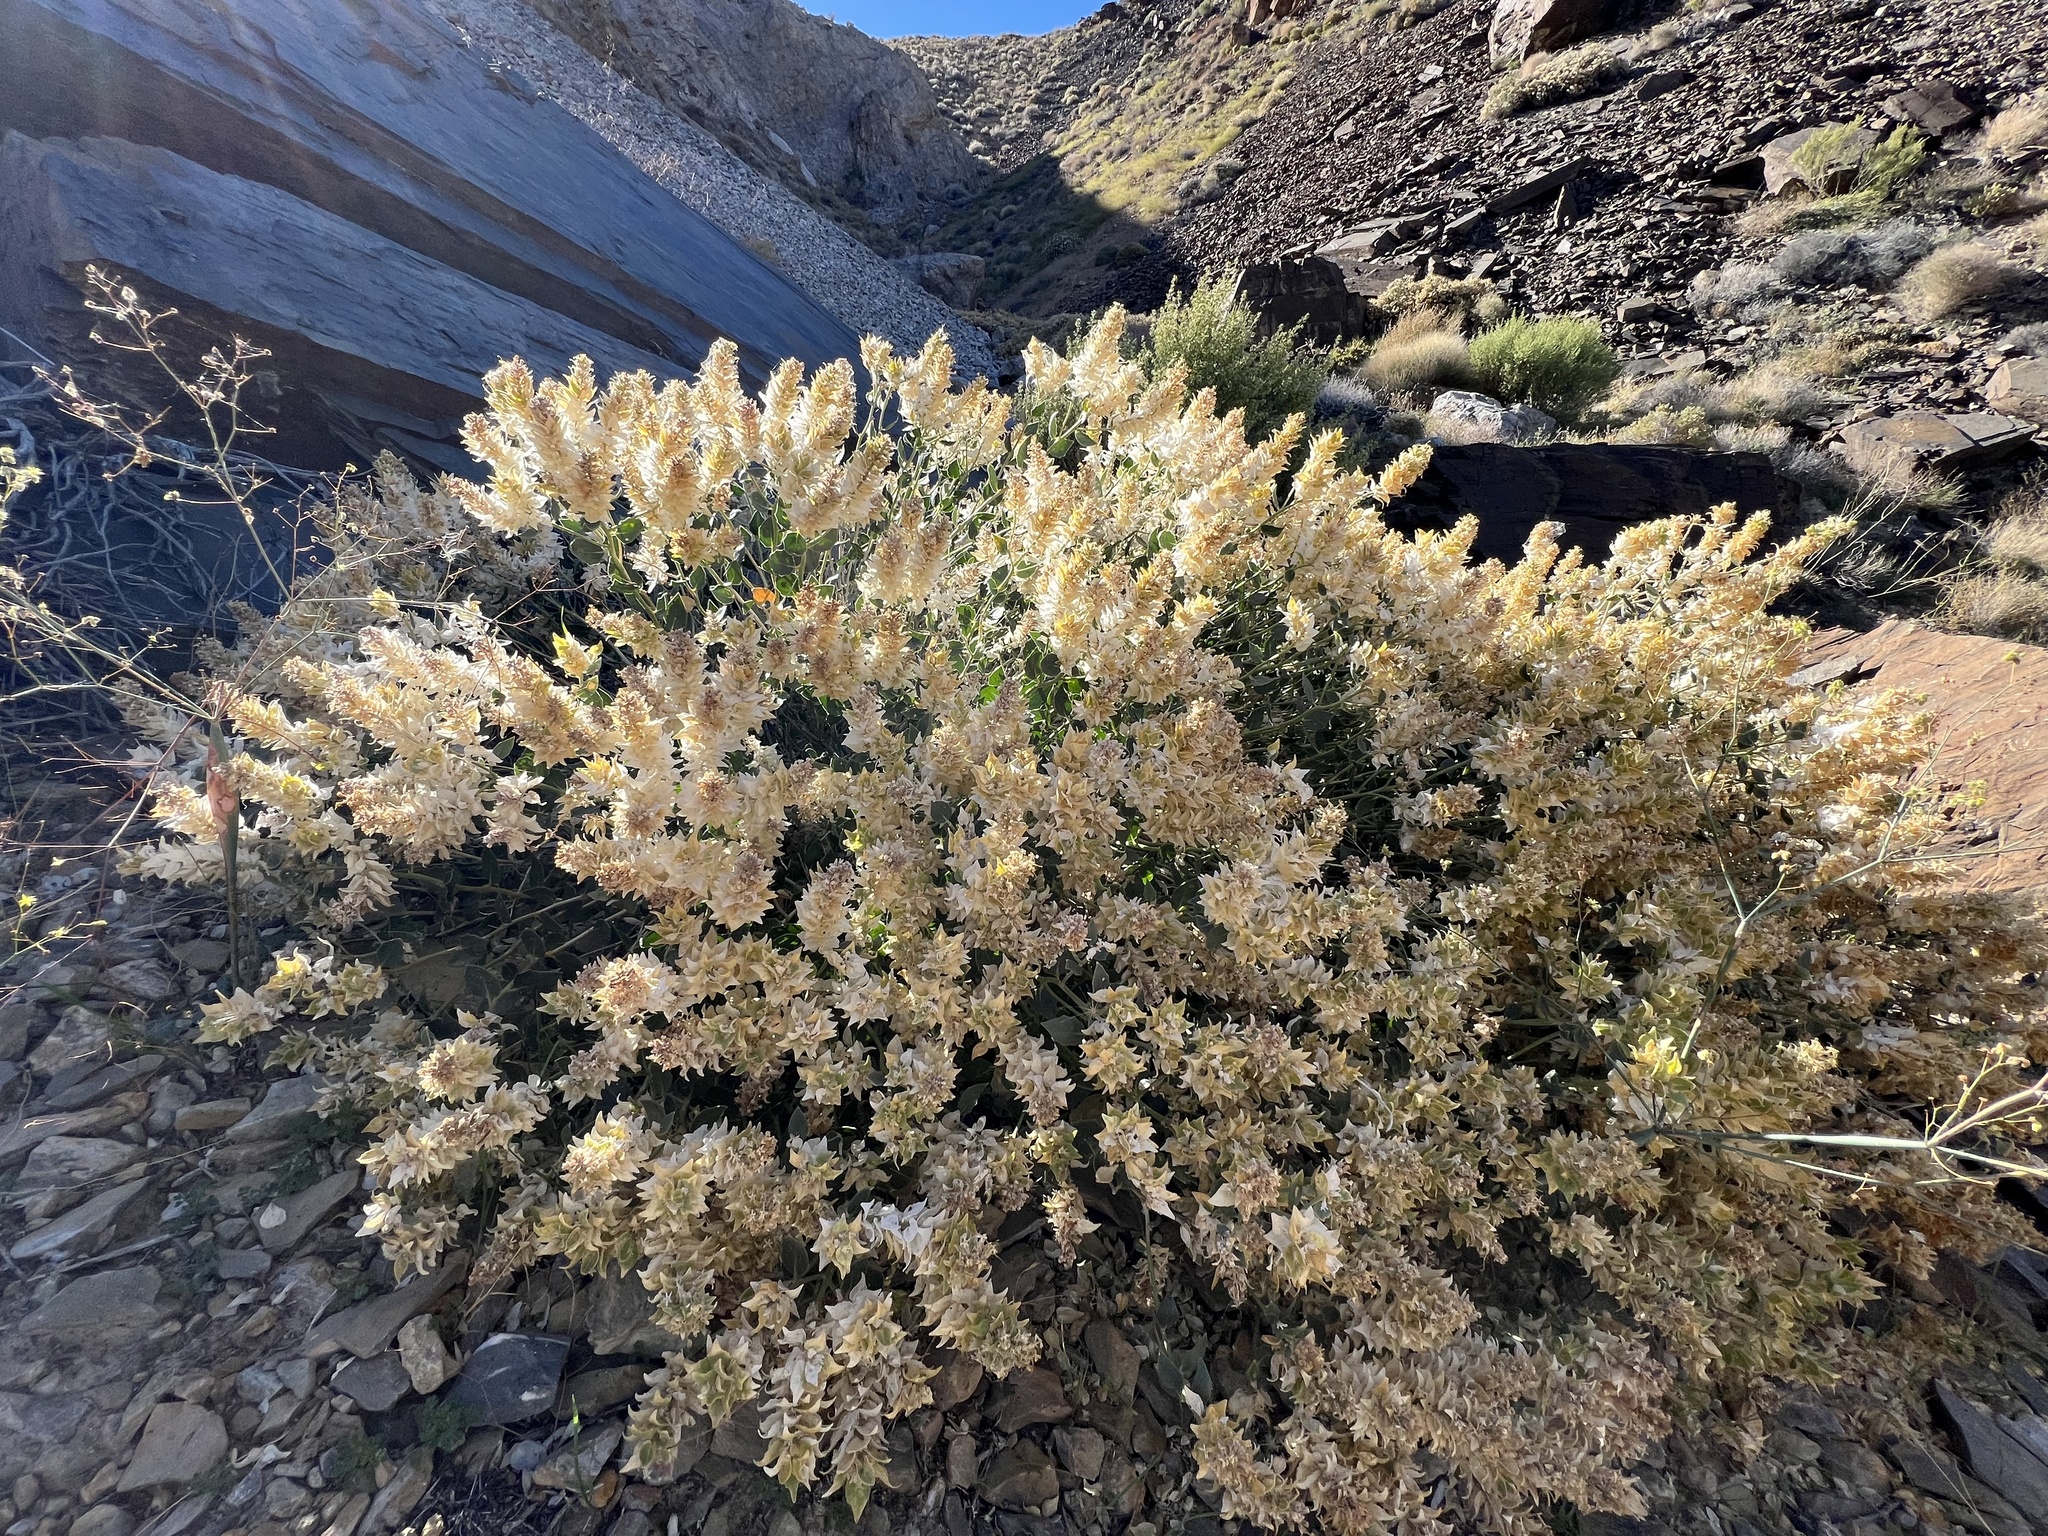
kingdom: Plantae
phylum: Tracheophyta
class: Magnoliopsida
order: Cornales
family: Loasaceae
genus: Petalonyx
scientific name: Petalonyx nitidus
